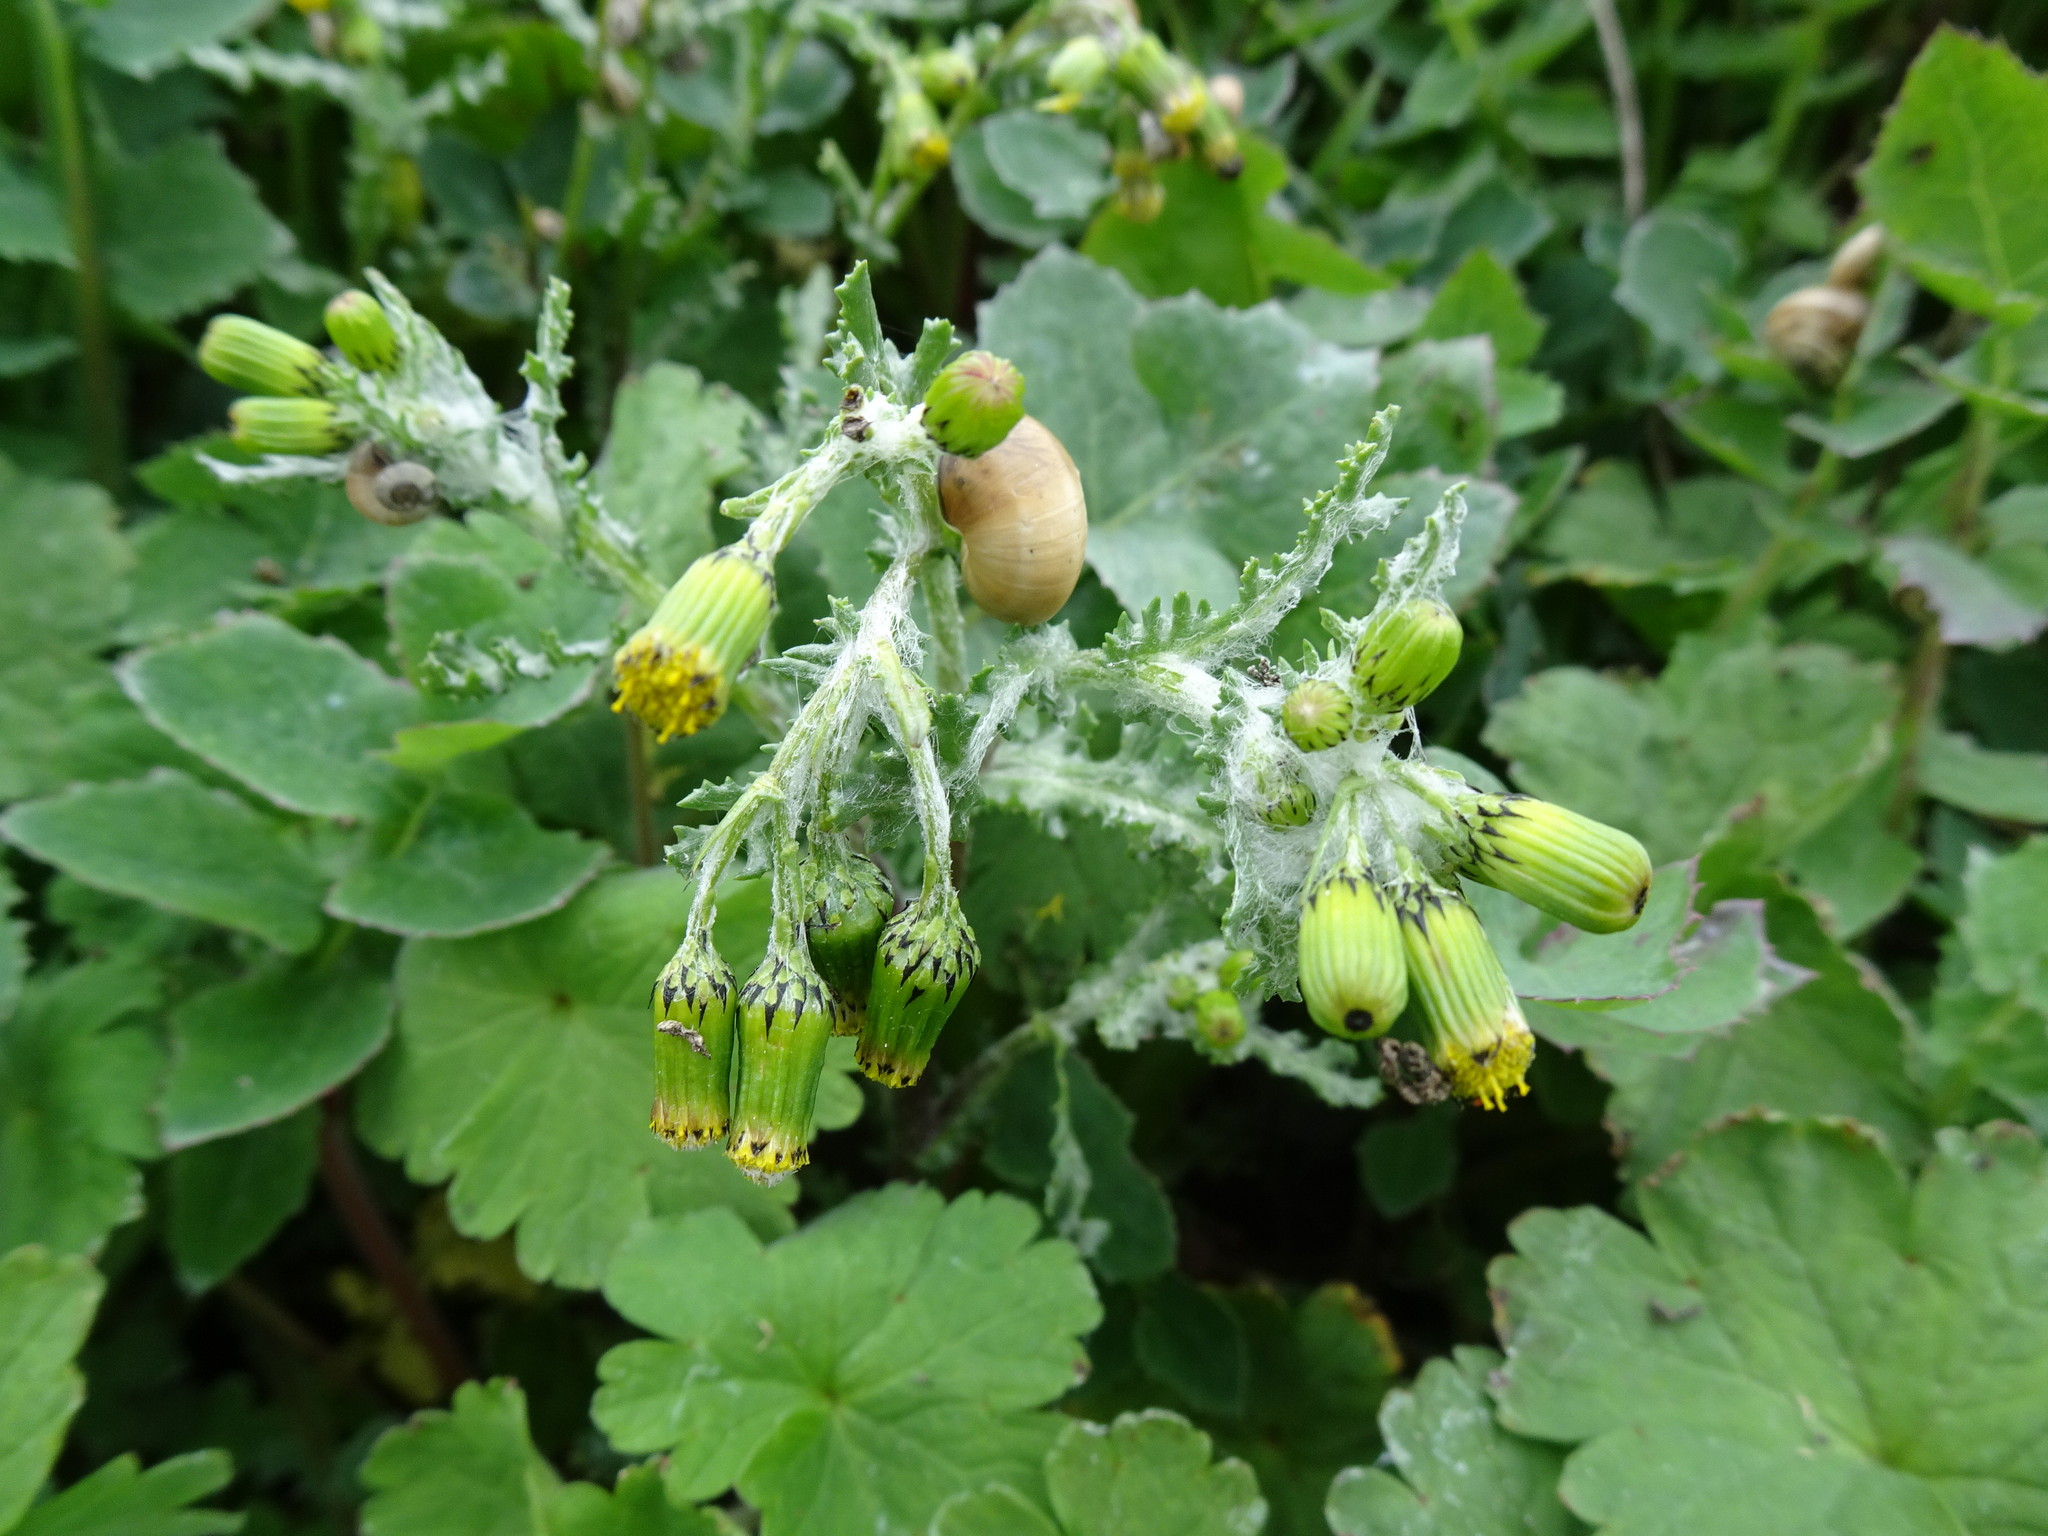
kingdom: Plantae
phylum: Tracheophyta
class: Magnoliopsida
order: Asterales
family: Asteraceae
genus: Senecio
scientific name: Senecio vulgaris
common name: Old-man-in-the-spring
